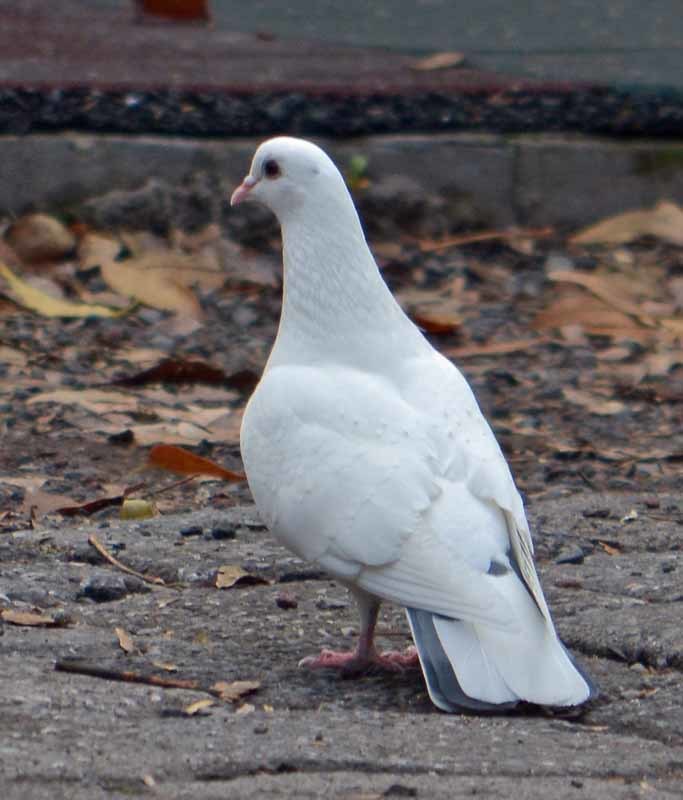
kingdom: Animalia
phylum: Chordata
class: Aves
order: Columbiformes
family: Columbidae
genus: Columba
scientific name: Columba livia
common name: Rock pigeon
